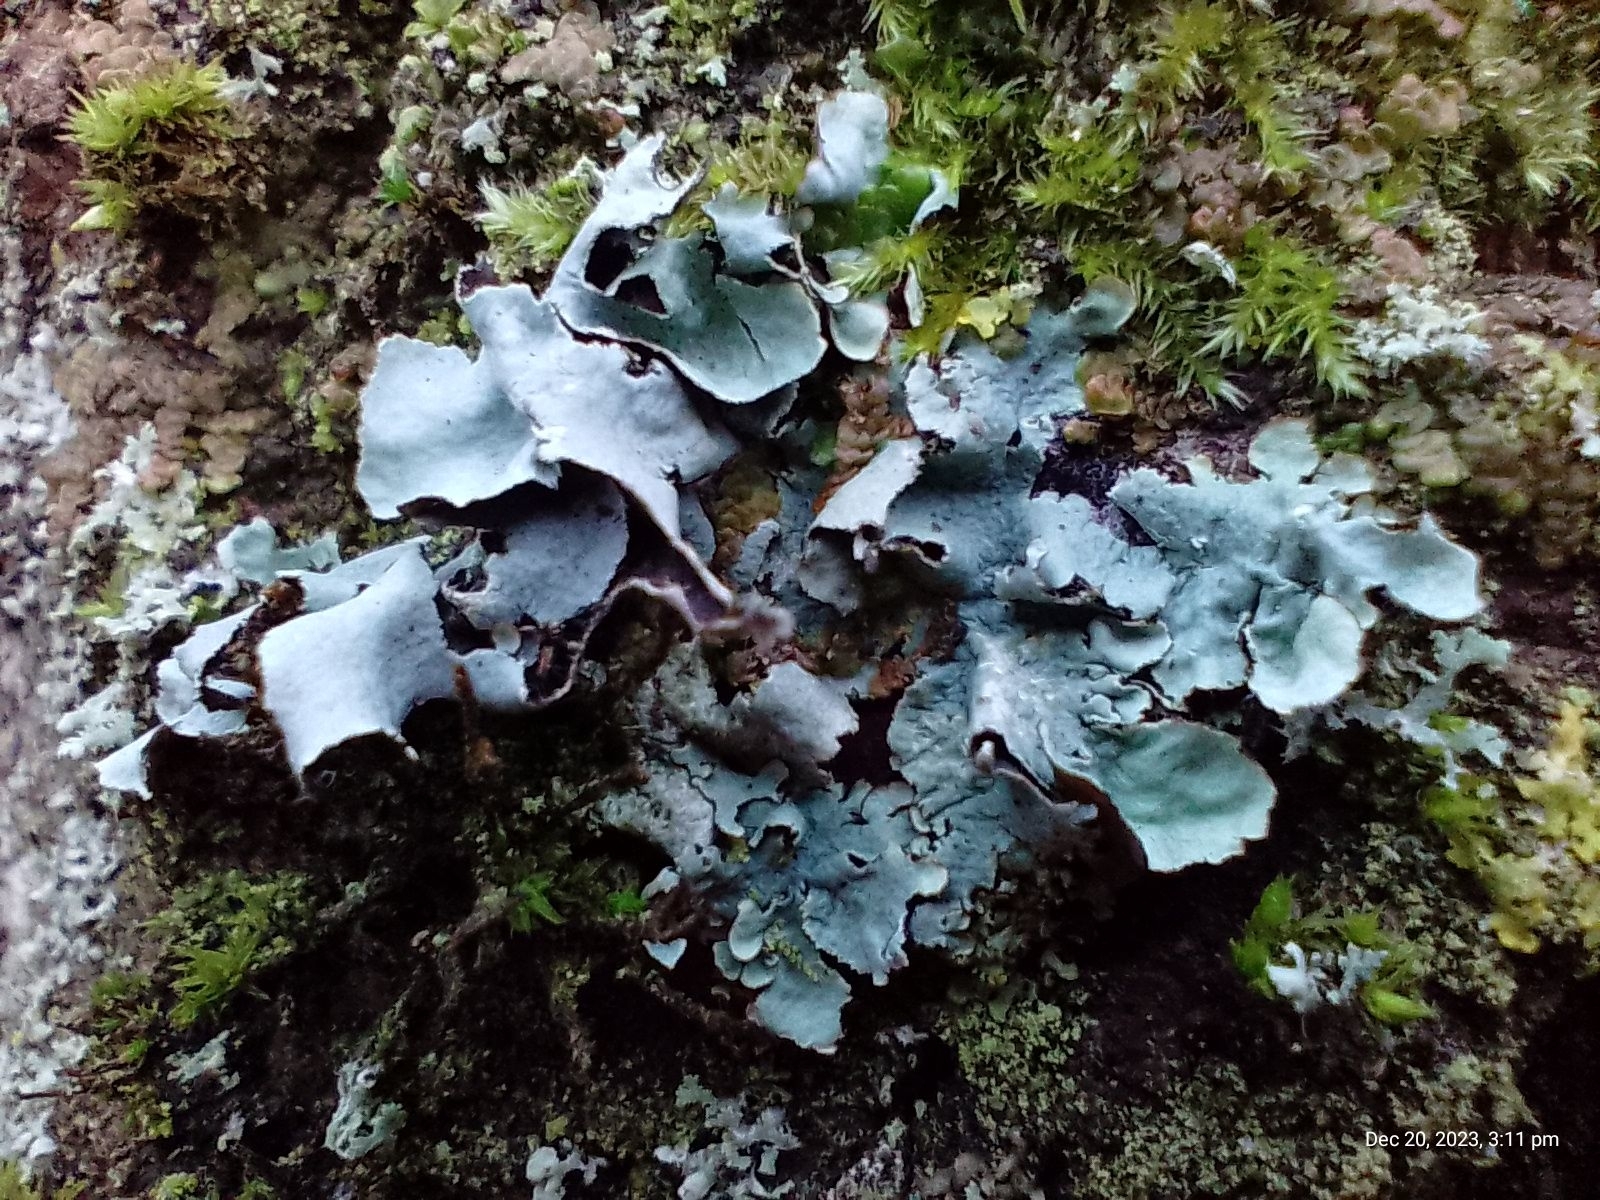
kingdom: Fungi
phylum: Ascomycota
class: Lecanoromycetes
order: Lecanorales
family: Parmeliaceae
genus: Parmotrema
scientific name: Parmotrema perlatum
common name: Black stone flower
